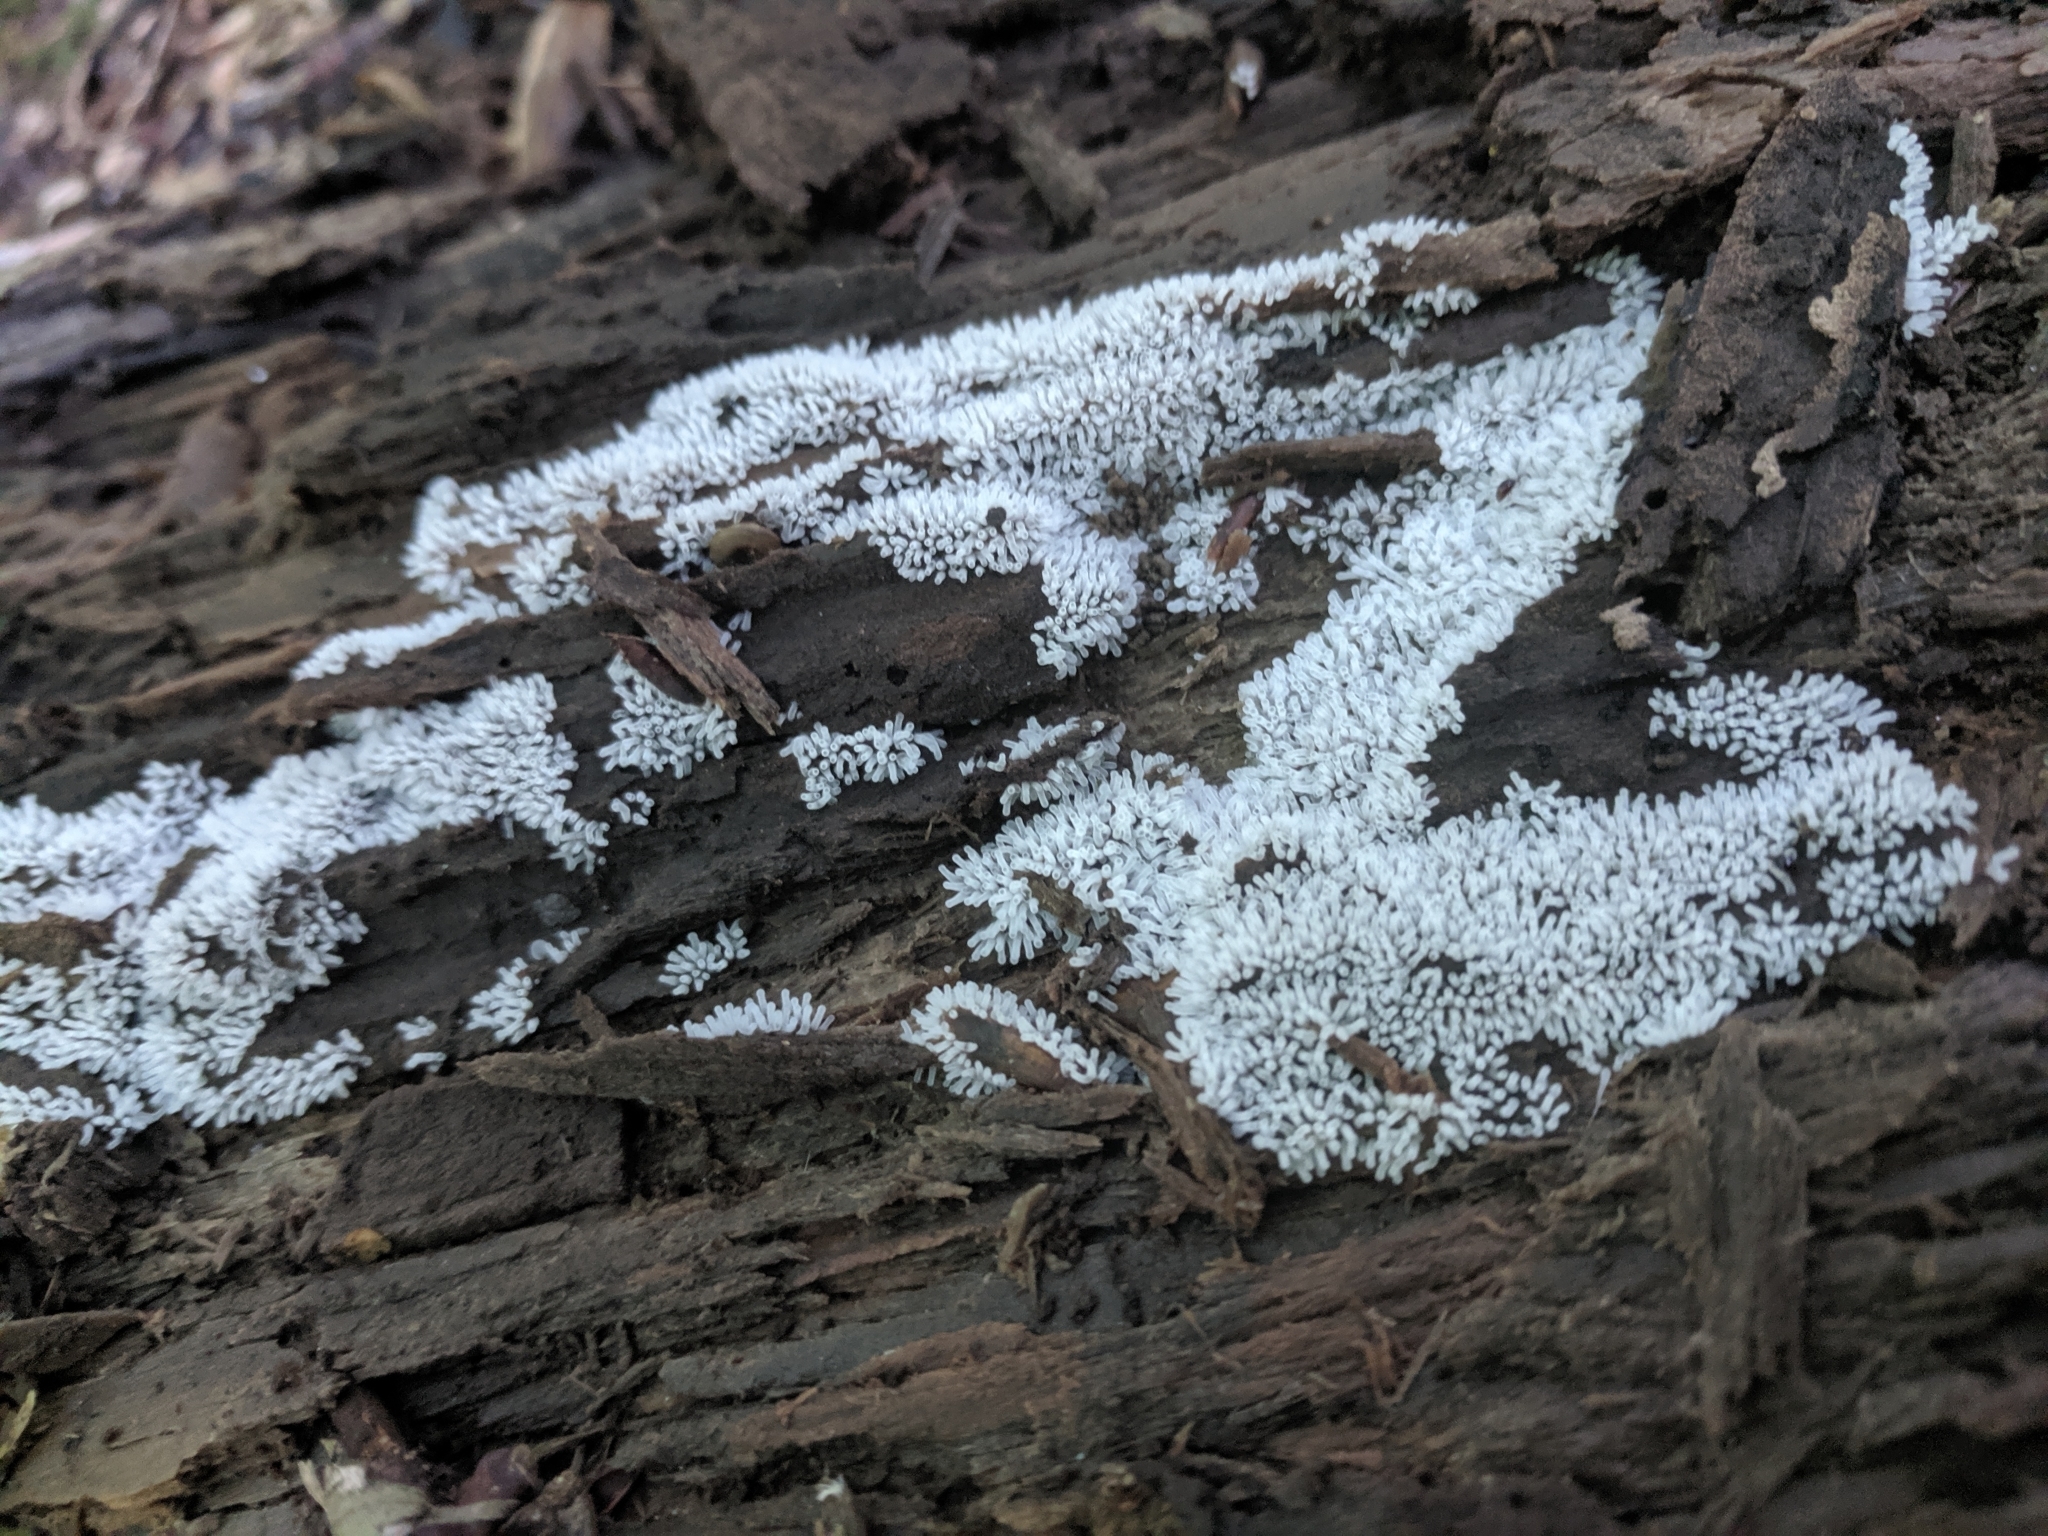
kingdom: Protozoa
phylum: Mycetozoa
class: Protosteliomycetes
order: Ceratiomyxales
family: Ceratiomyxaceae
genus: Ceratiomyxa
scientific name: Ceratiomyxa fruticulosa
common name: Honeycomb coral slime mold
